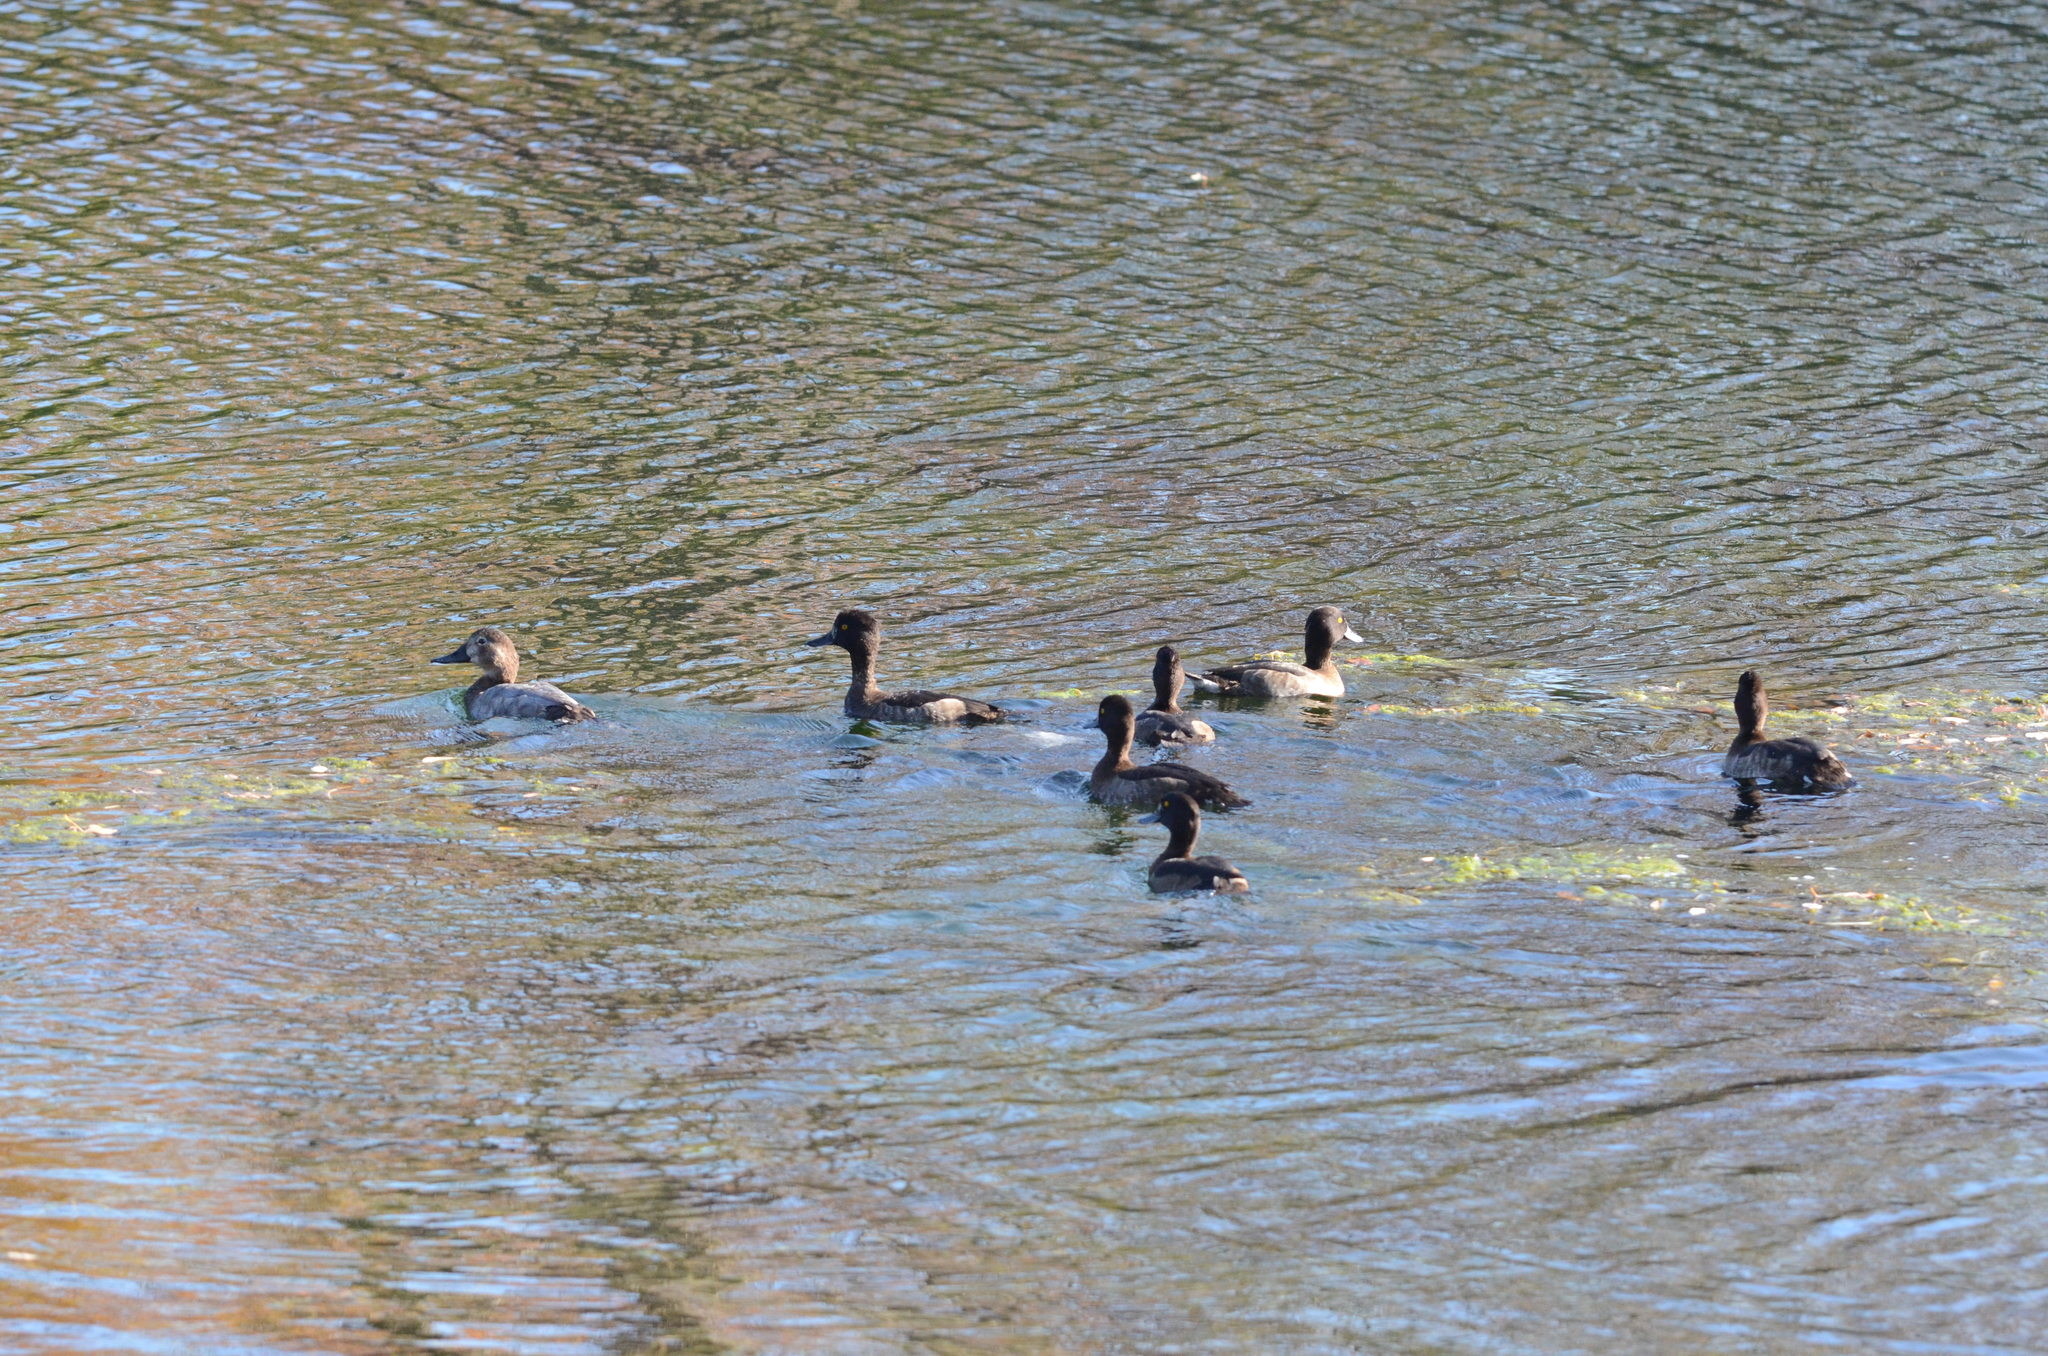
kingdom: Animalia
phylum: Chordata
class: Aves
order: Anseriformes
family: Anatidae
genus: Aythya
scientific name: Aythya fuligula
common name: Tufted duck
